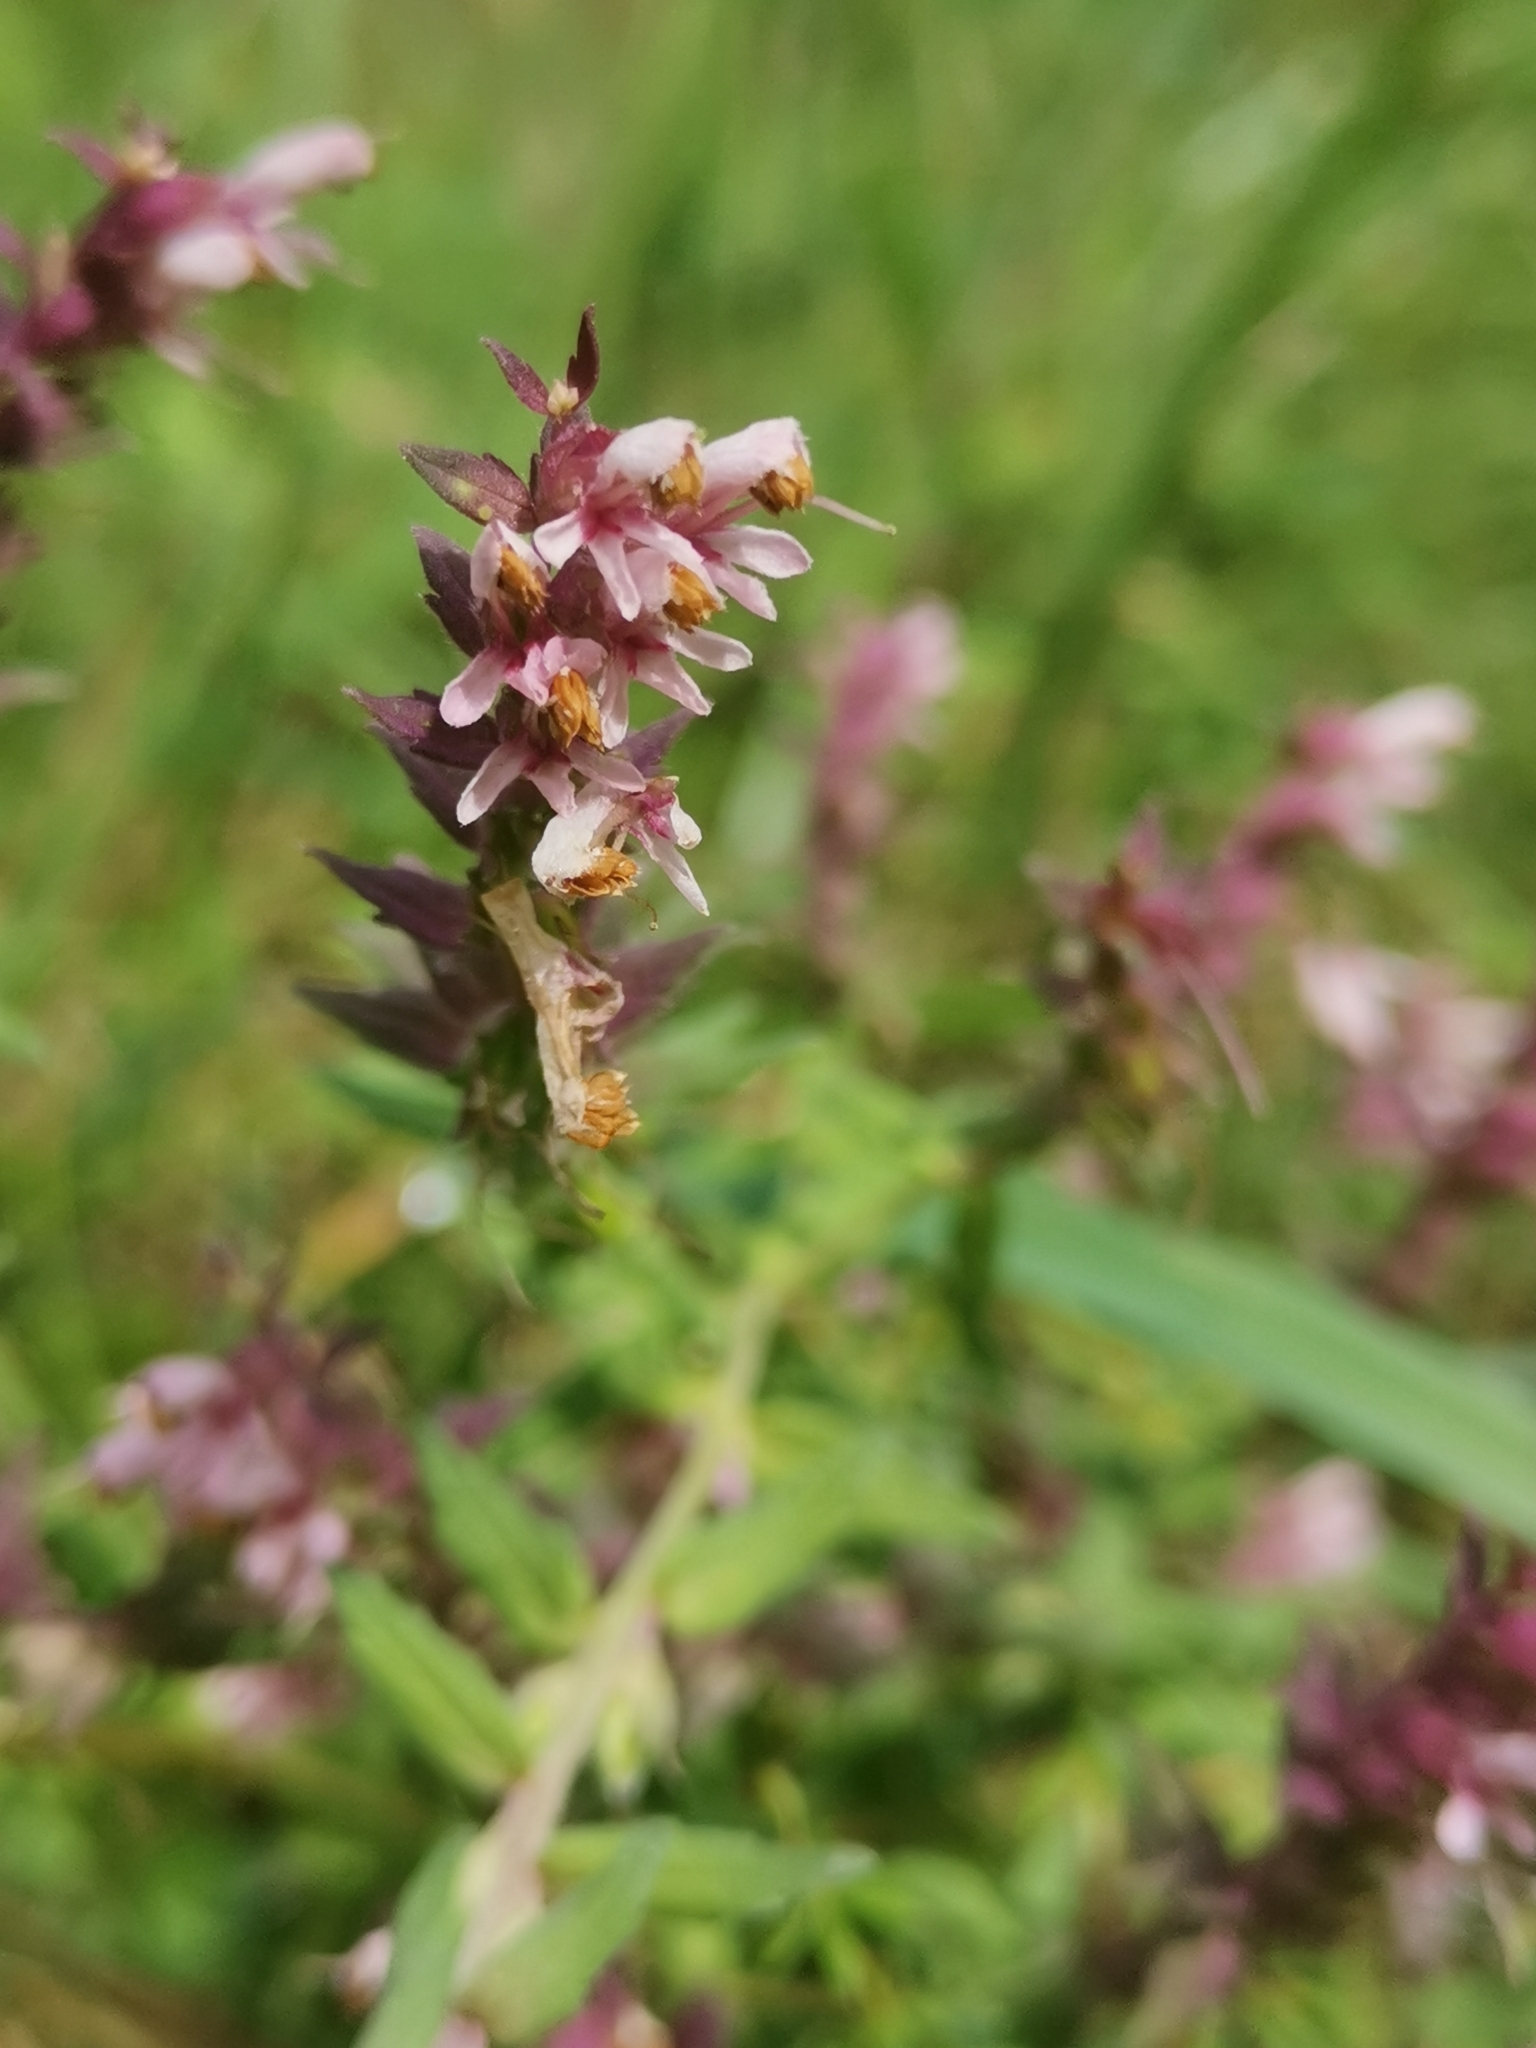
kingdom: Plantae
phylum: Tracheophyta
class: Magnoliopsida
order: Lamiales
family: Orobanchaceae
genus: Odontites
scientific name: Odontites vulgaris
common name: Broomrape
